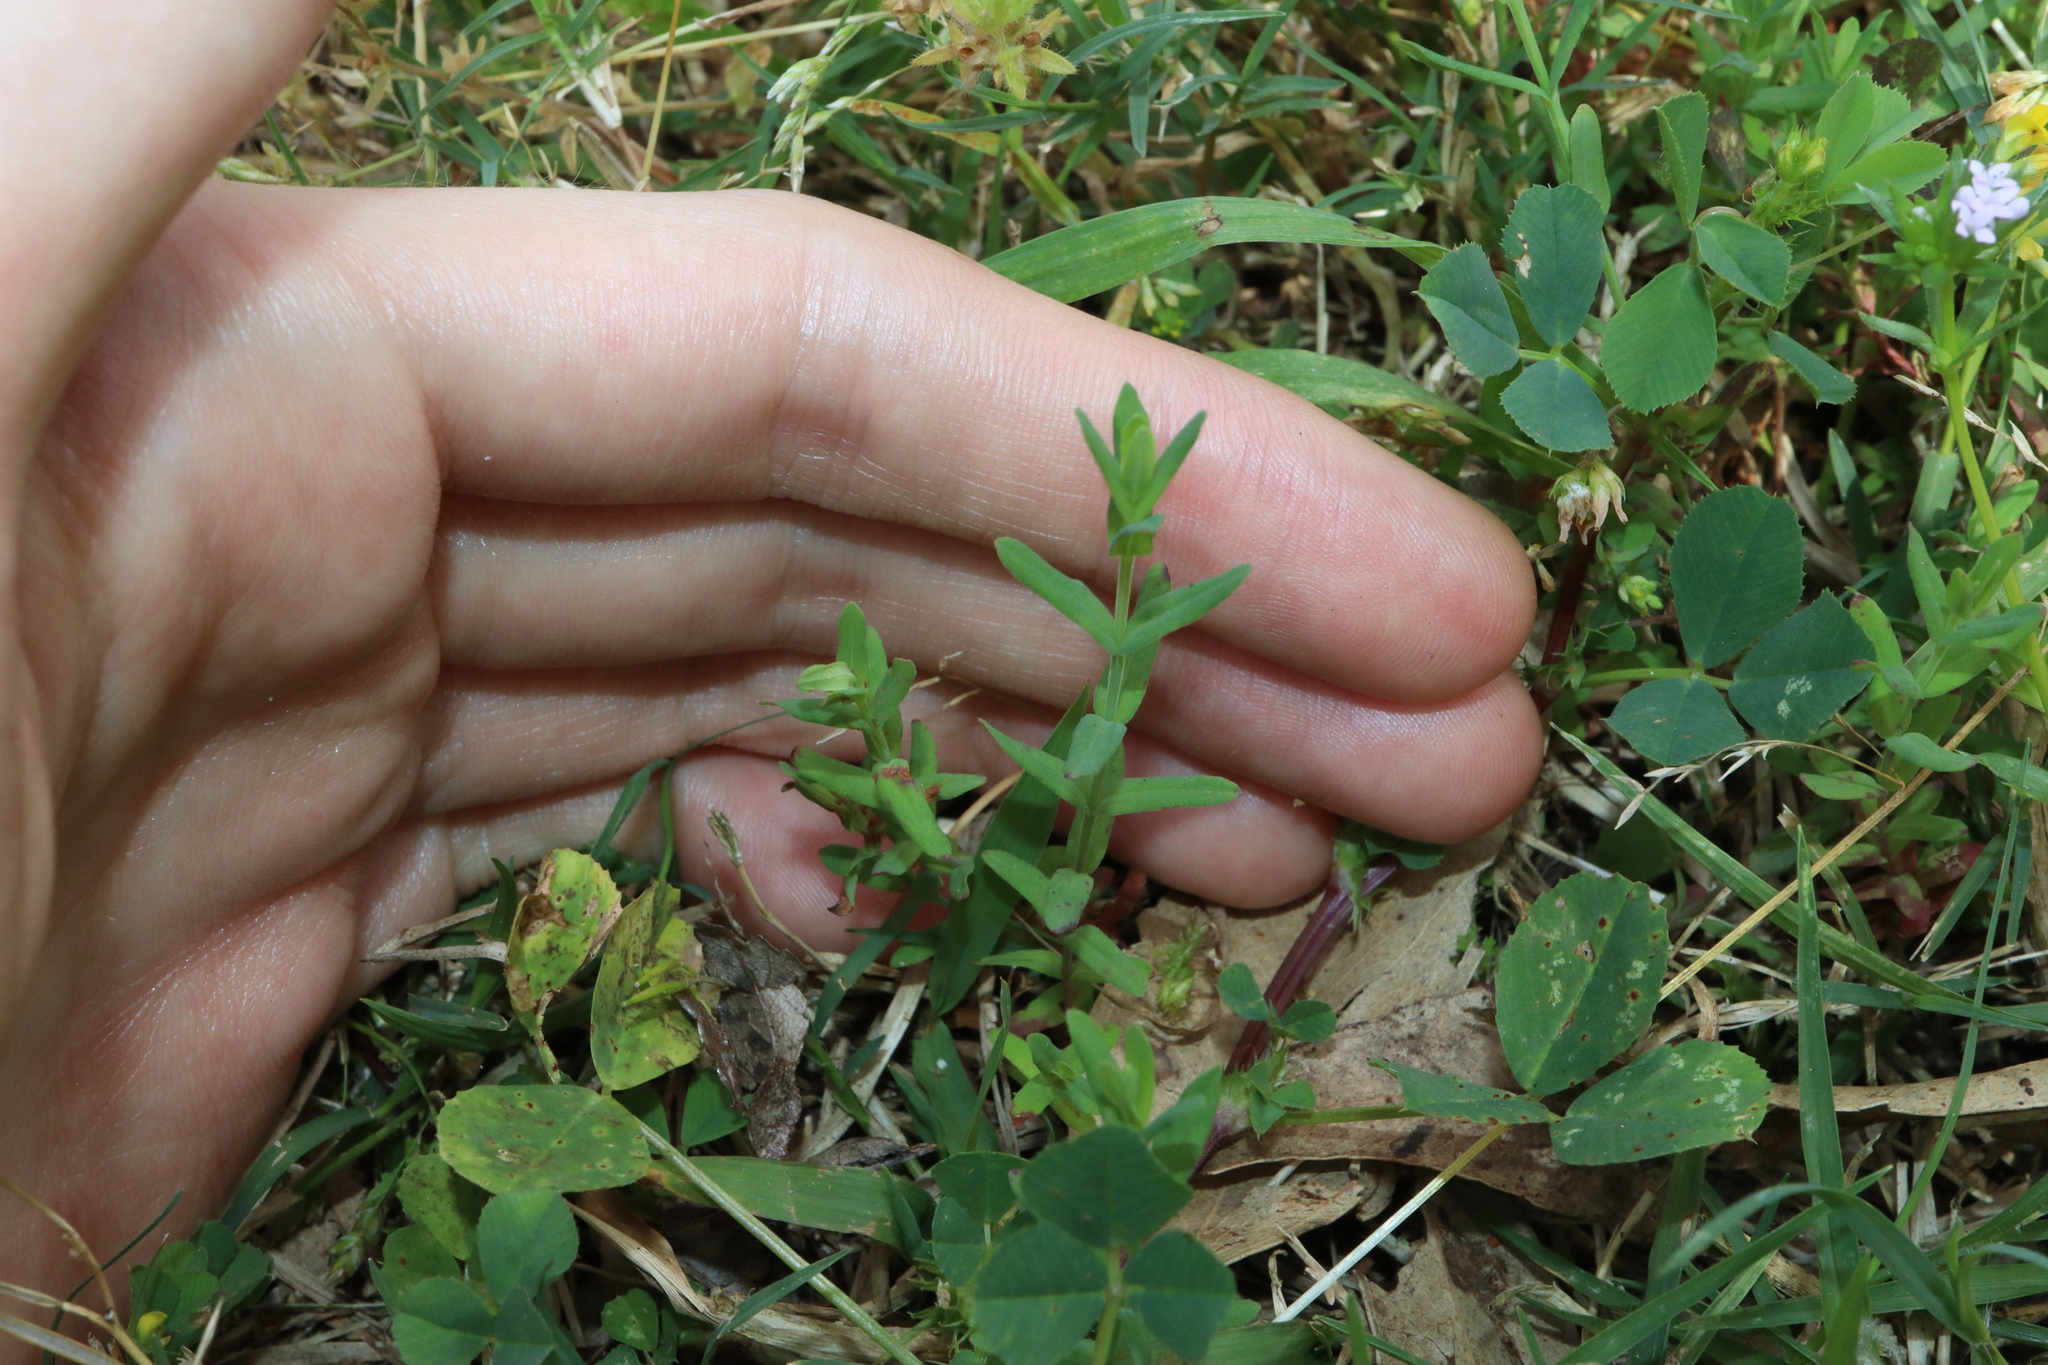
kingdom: Plantae
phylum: Tracheophyta
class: Magnoliopsida
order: Malpighiales
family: Hypericaceae
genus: Hypericum
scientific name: Hypericum gramineum
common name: Grassy st. johnswort
